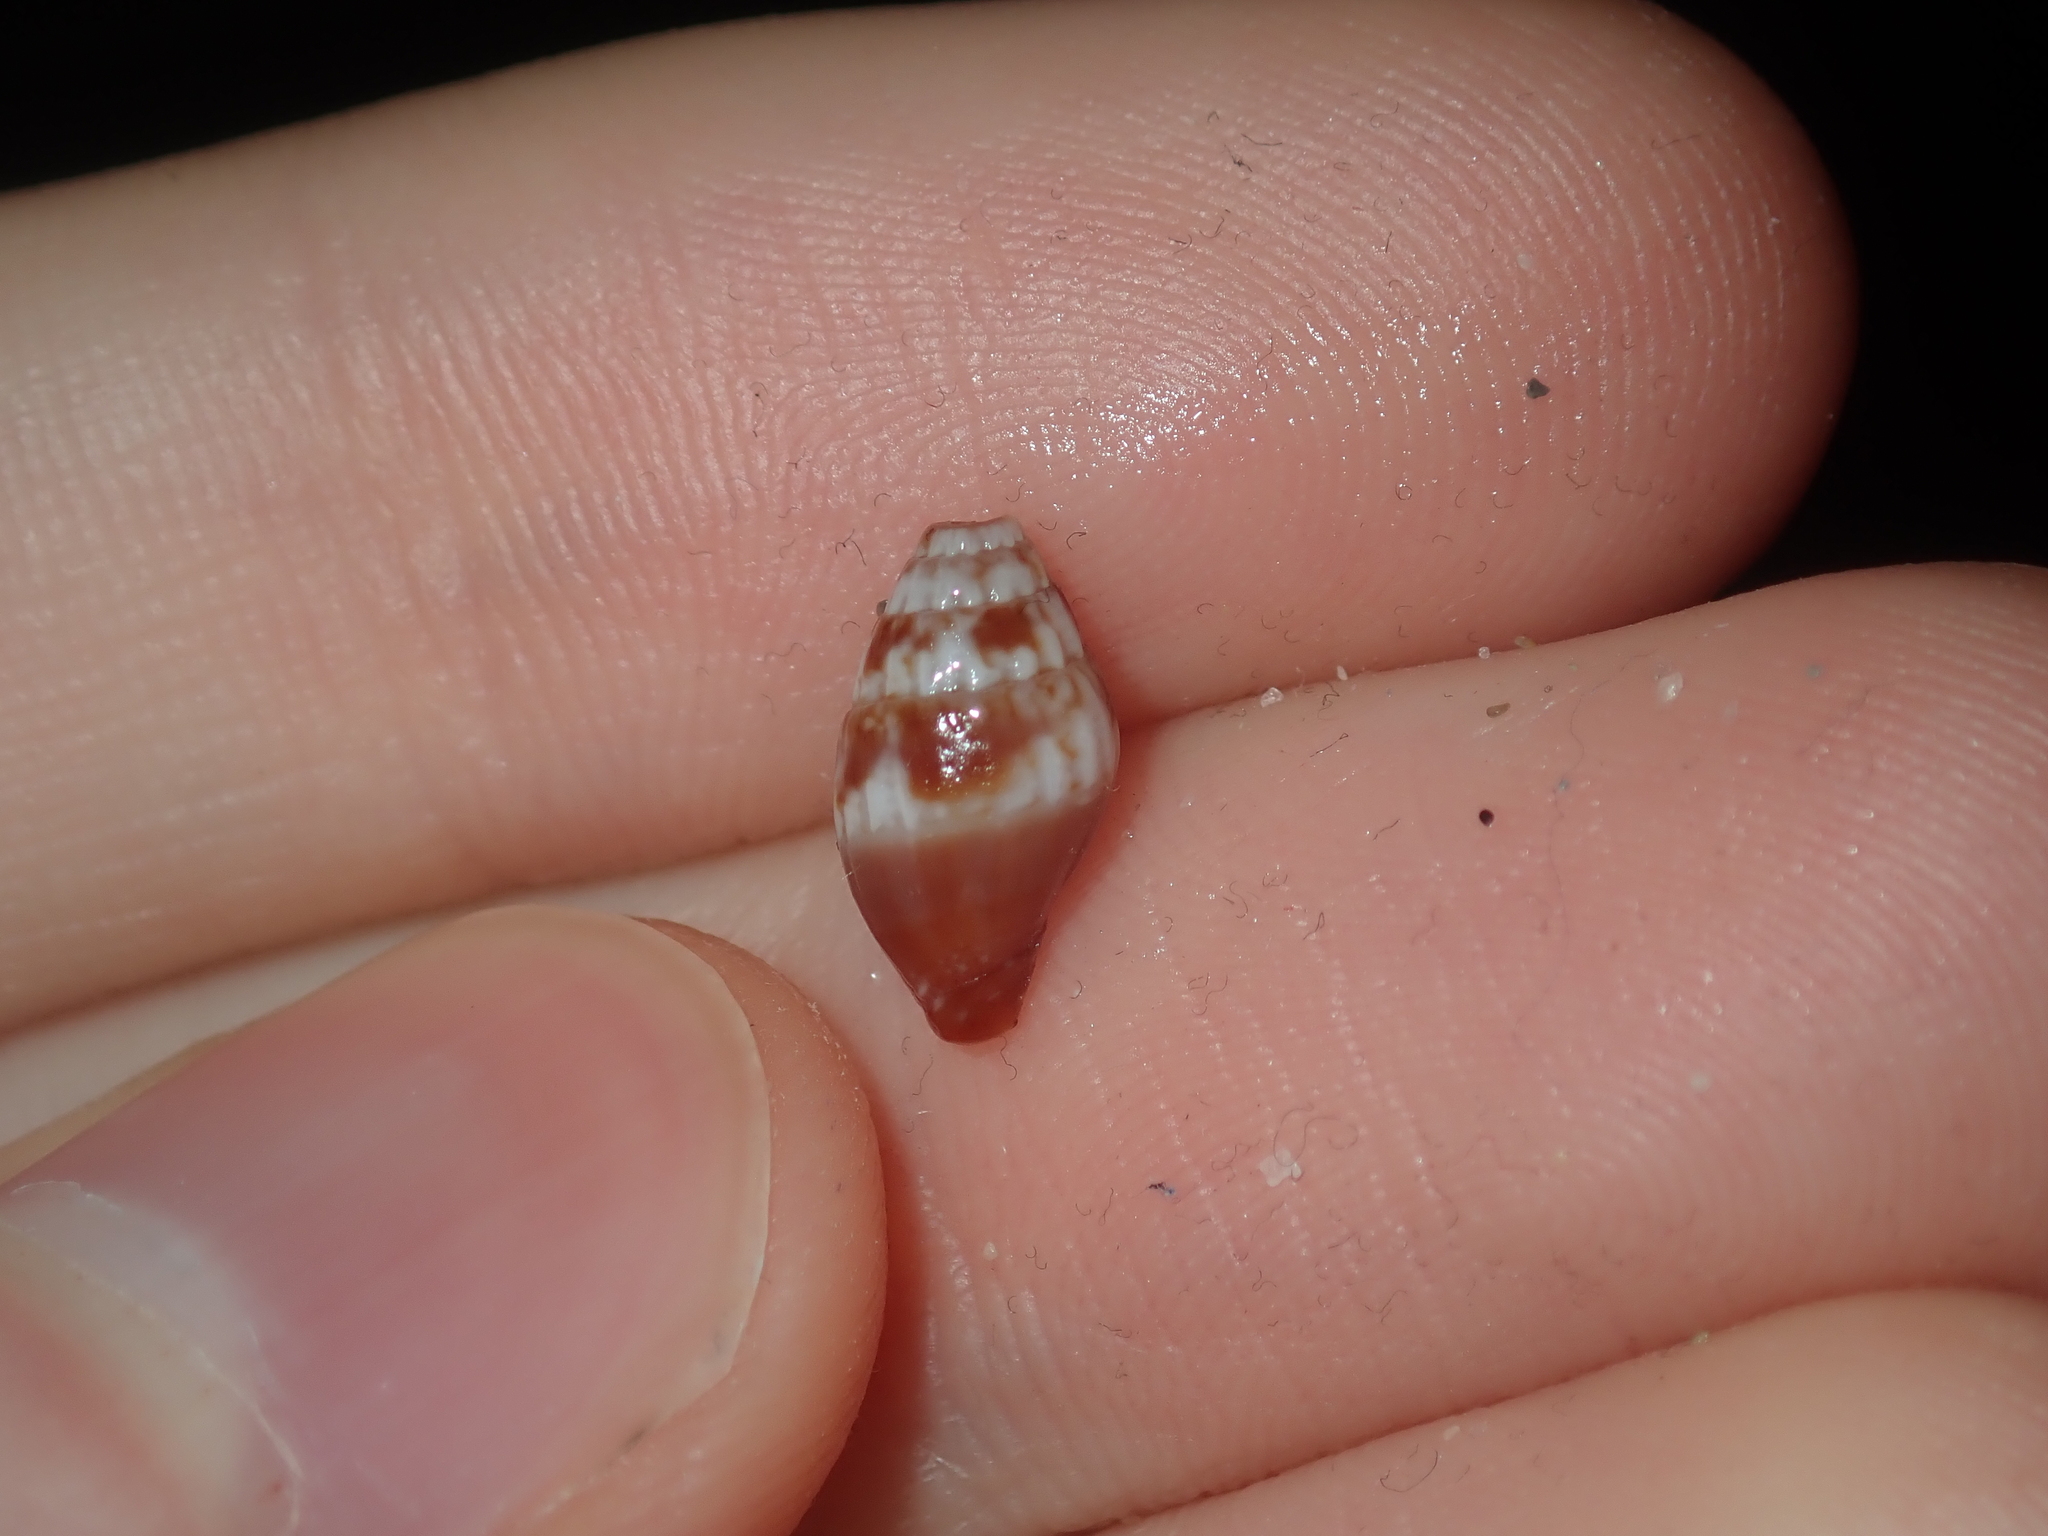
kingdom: Animalia
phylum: Mollusca
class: Gastropoda
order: Neogastropoda
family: Costellariidae
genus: Pusia
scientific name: Pusia simoneae
